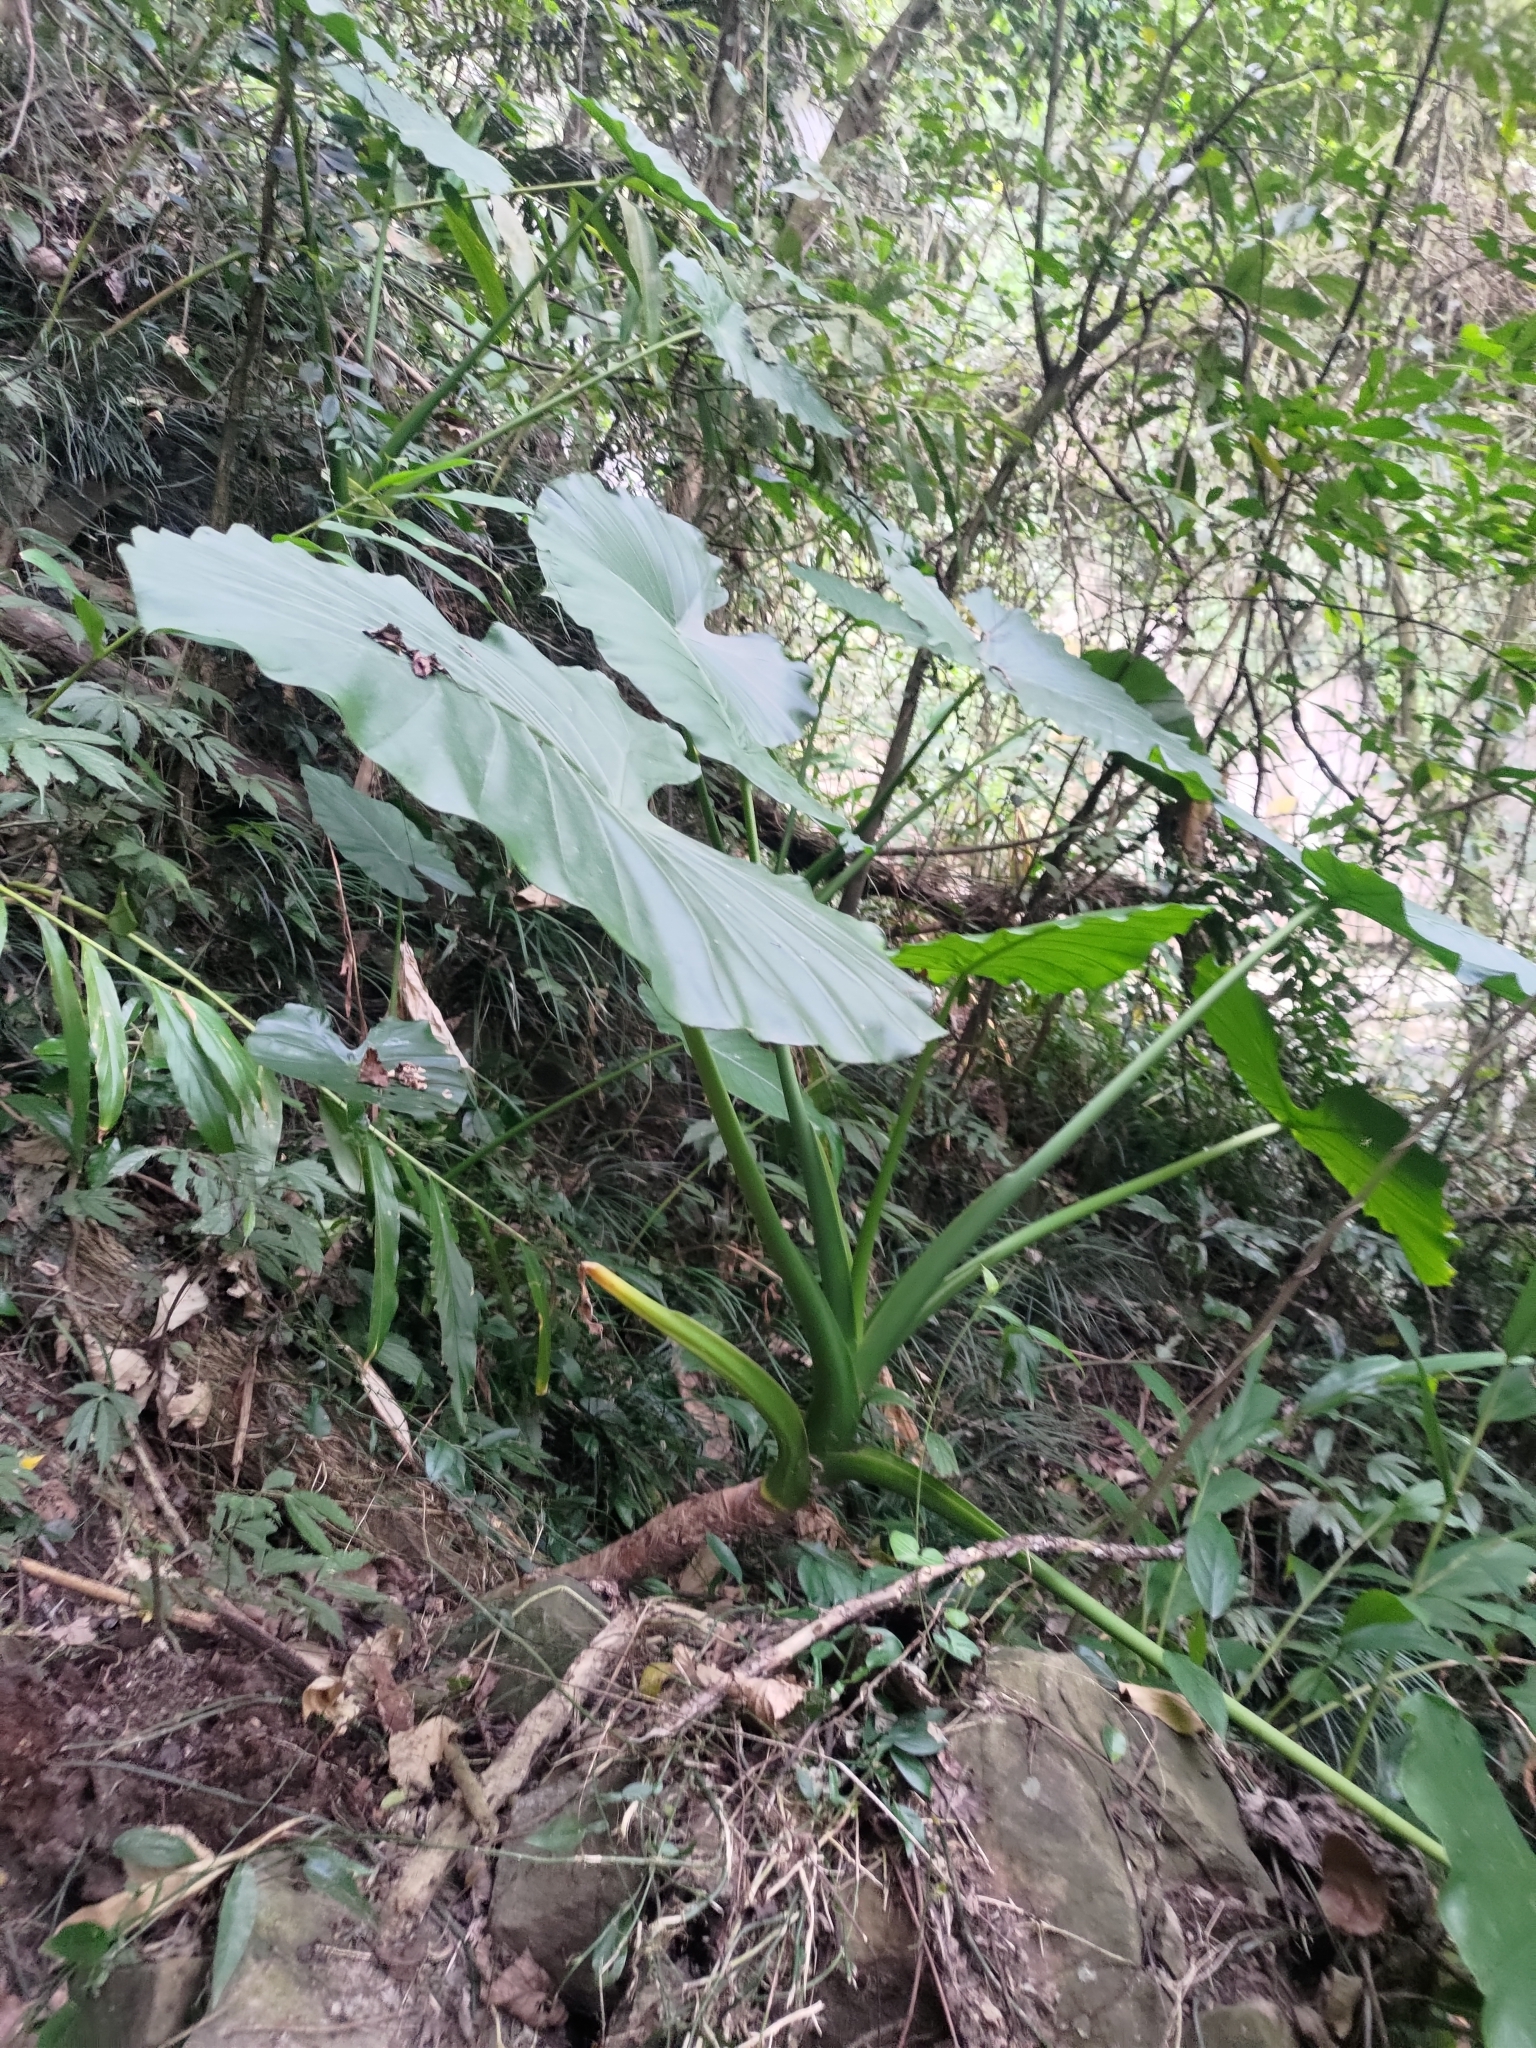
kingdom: Plantae
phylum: Tracheophyta
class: Liliopsida
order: Alismatales
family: Araceae
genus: Alocasia
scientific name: Alocasia odora
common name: Asian taro
